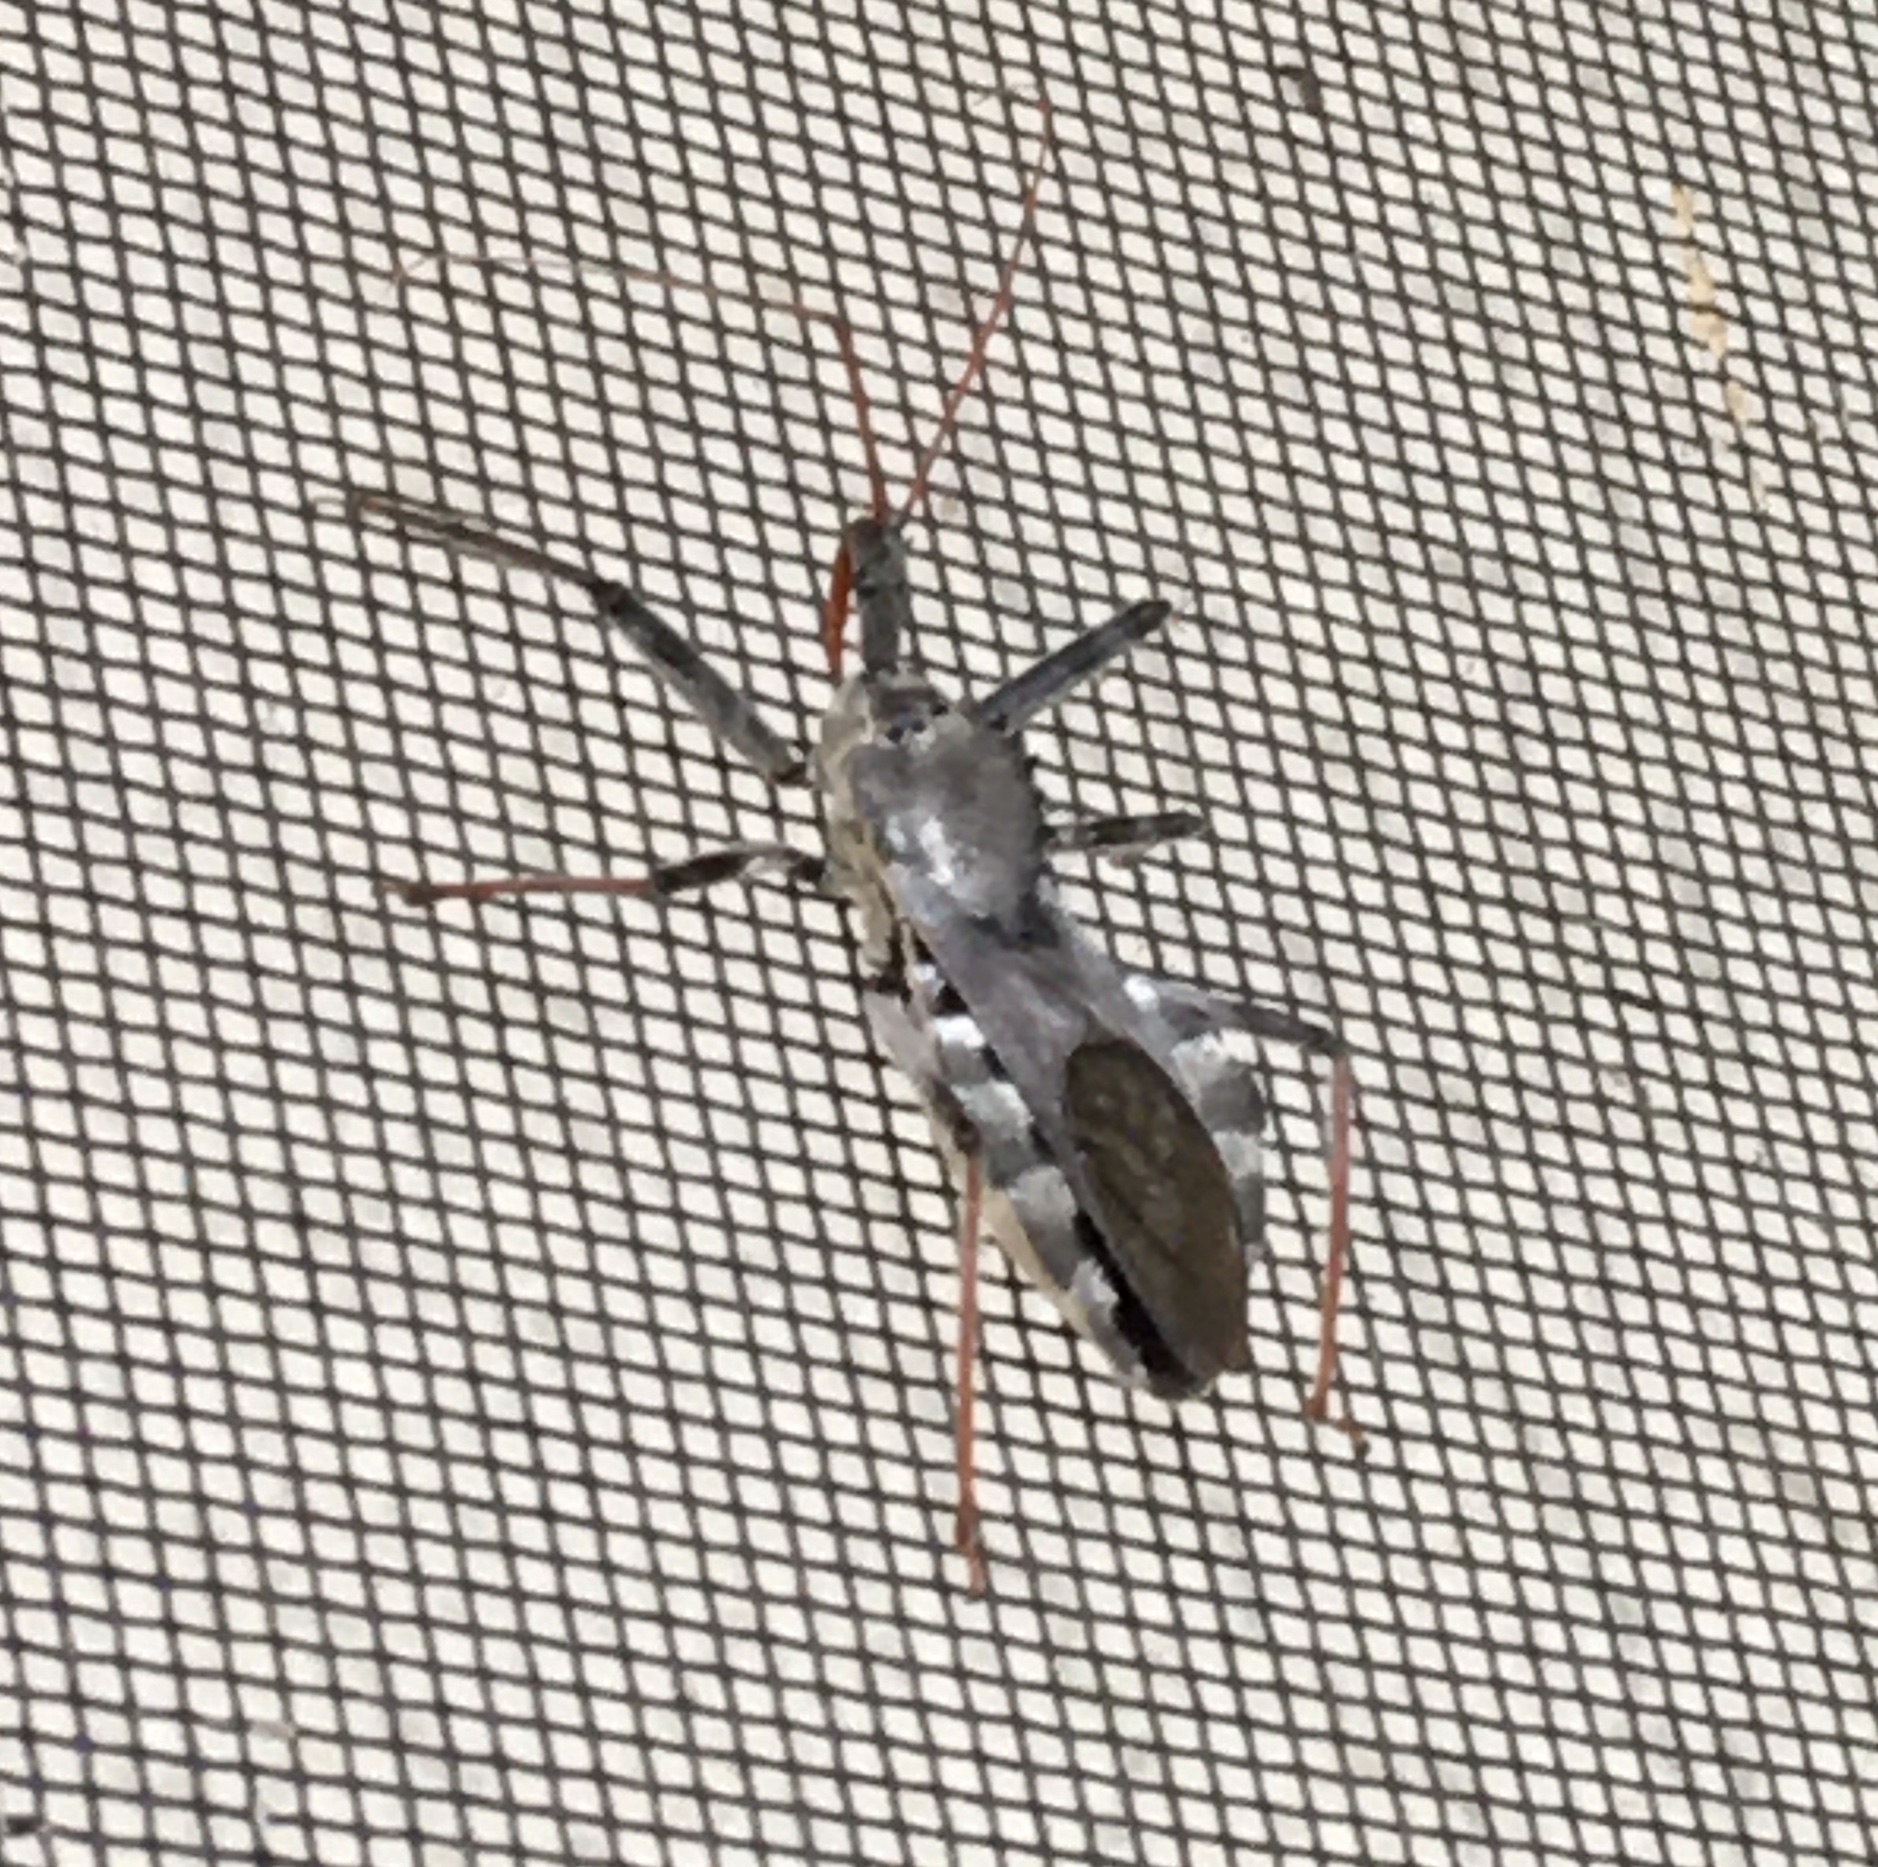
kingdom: Animalia
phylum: Arthropoda
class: Insecta
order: Hemiptera
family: Reduviidae
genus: Arilus
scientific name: Arilus cristatus
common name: North american wheel bug
